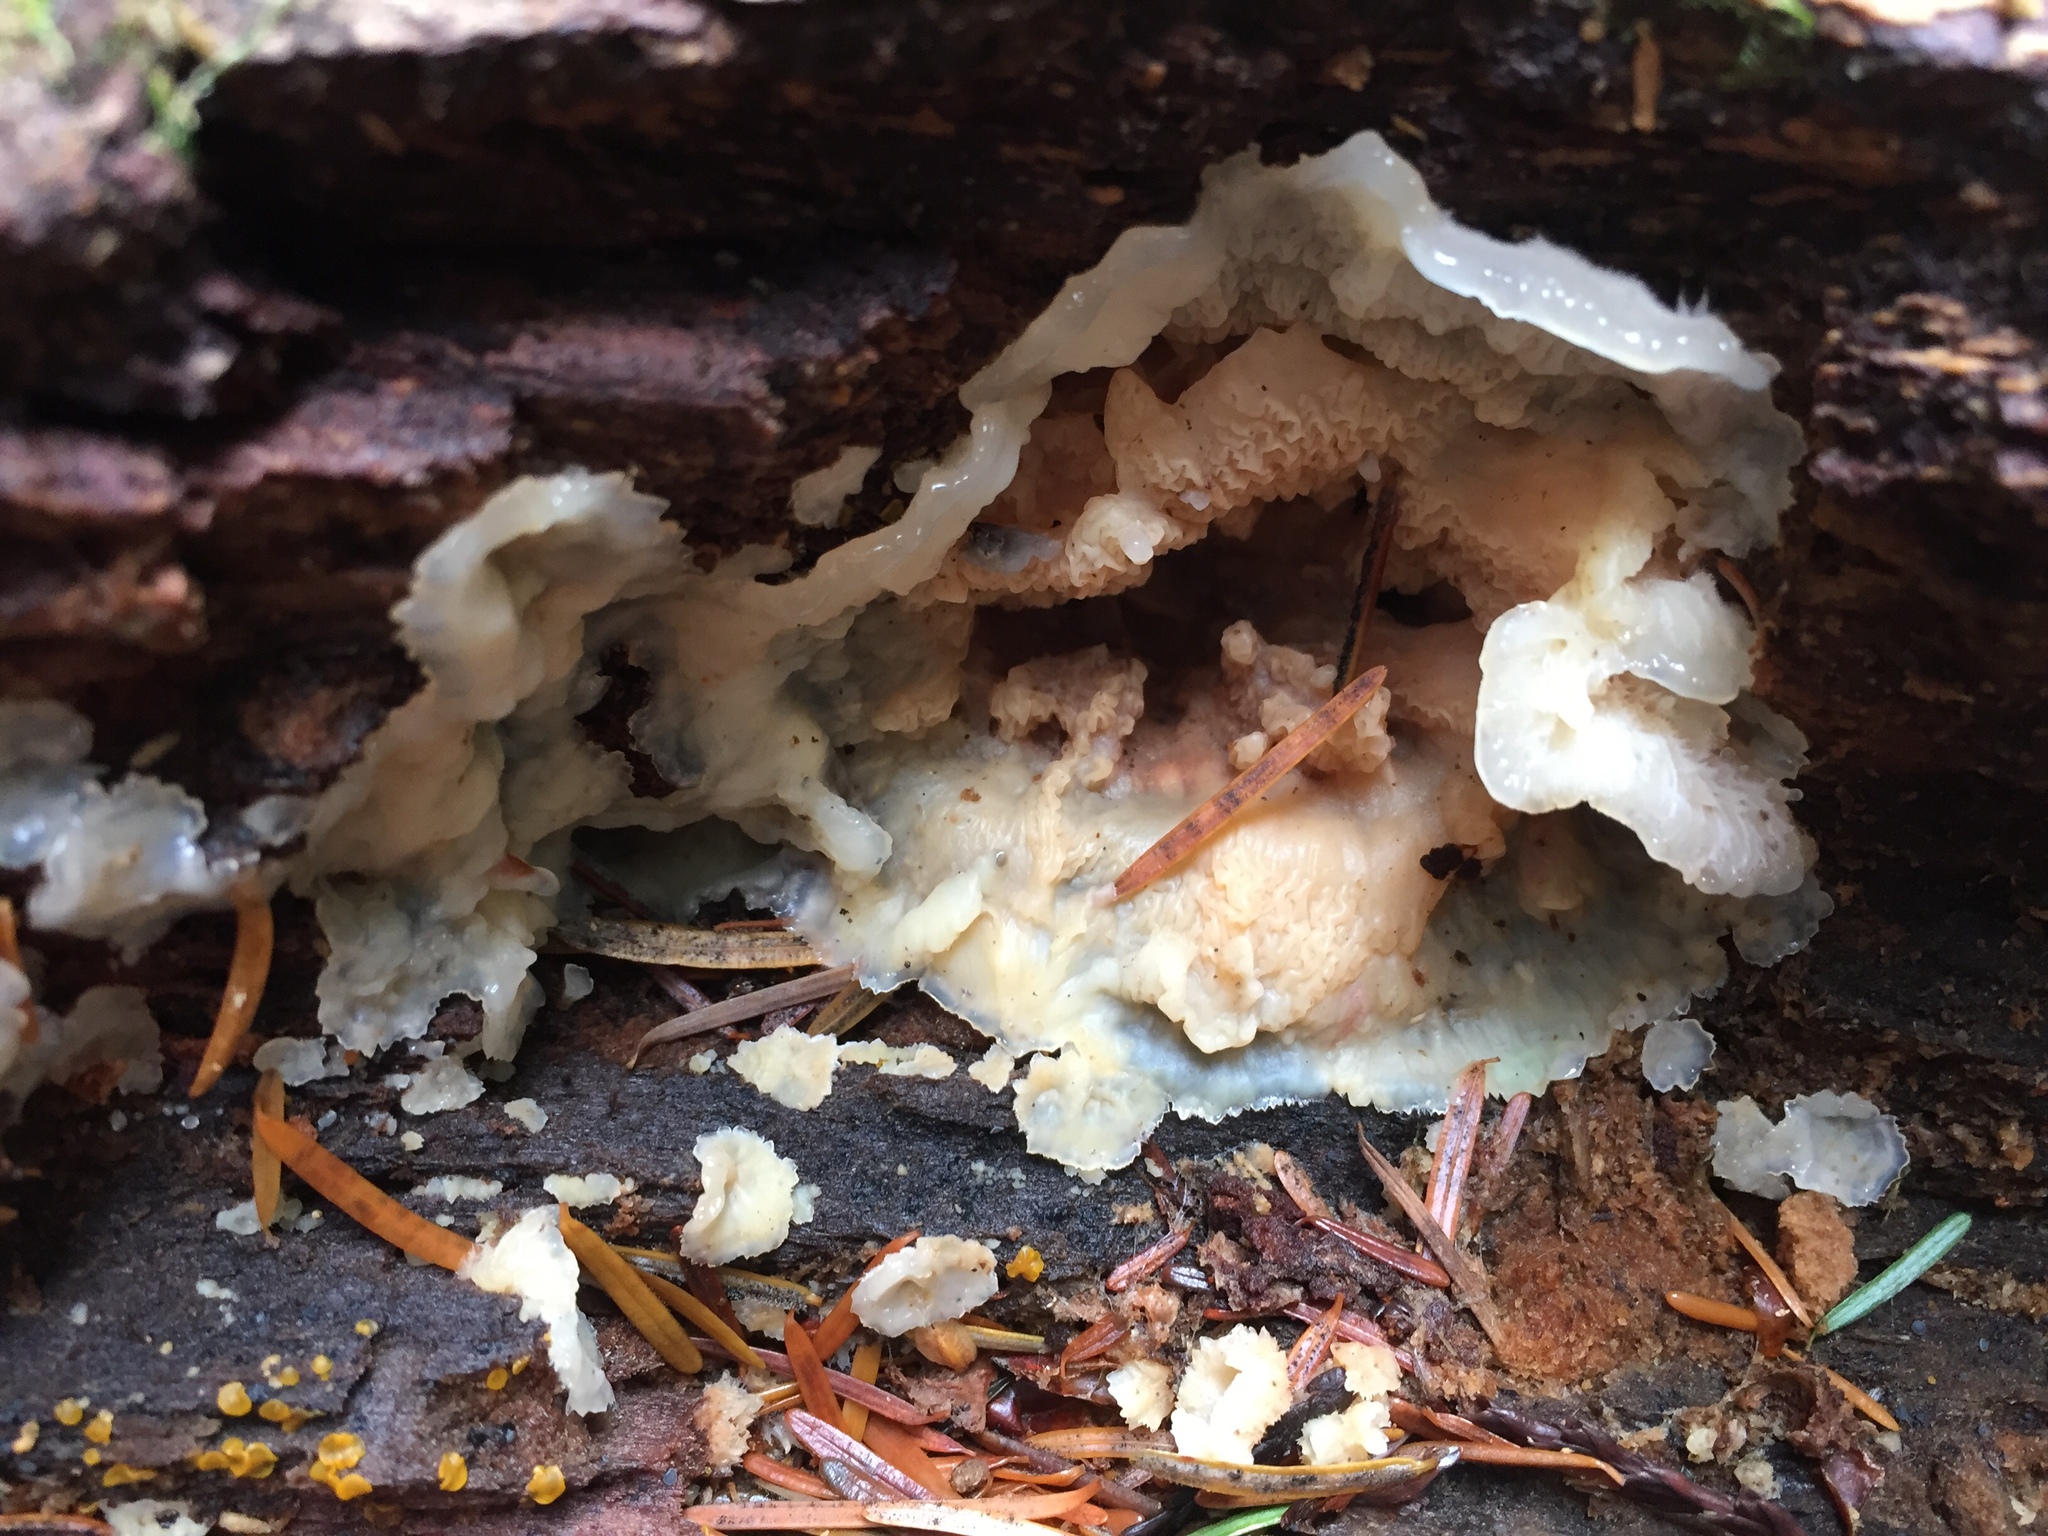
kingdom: Fungi
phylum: Basidiomycota
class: Agaricomycetes
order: Polyporales
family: Meruliaceae
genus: Phlebia
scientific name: Phlebia tremellosa
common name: Jelly rot
